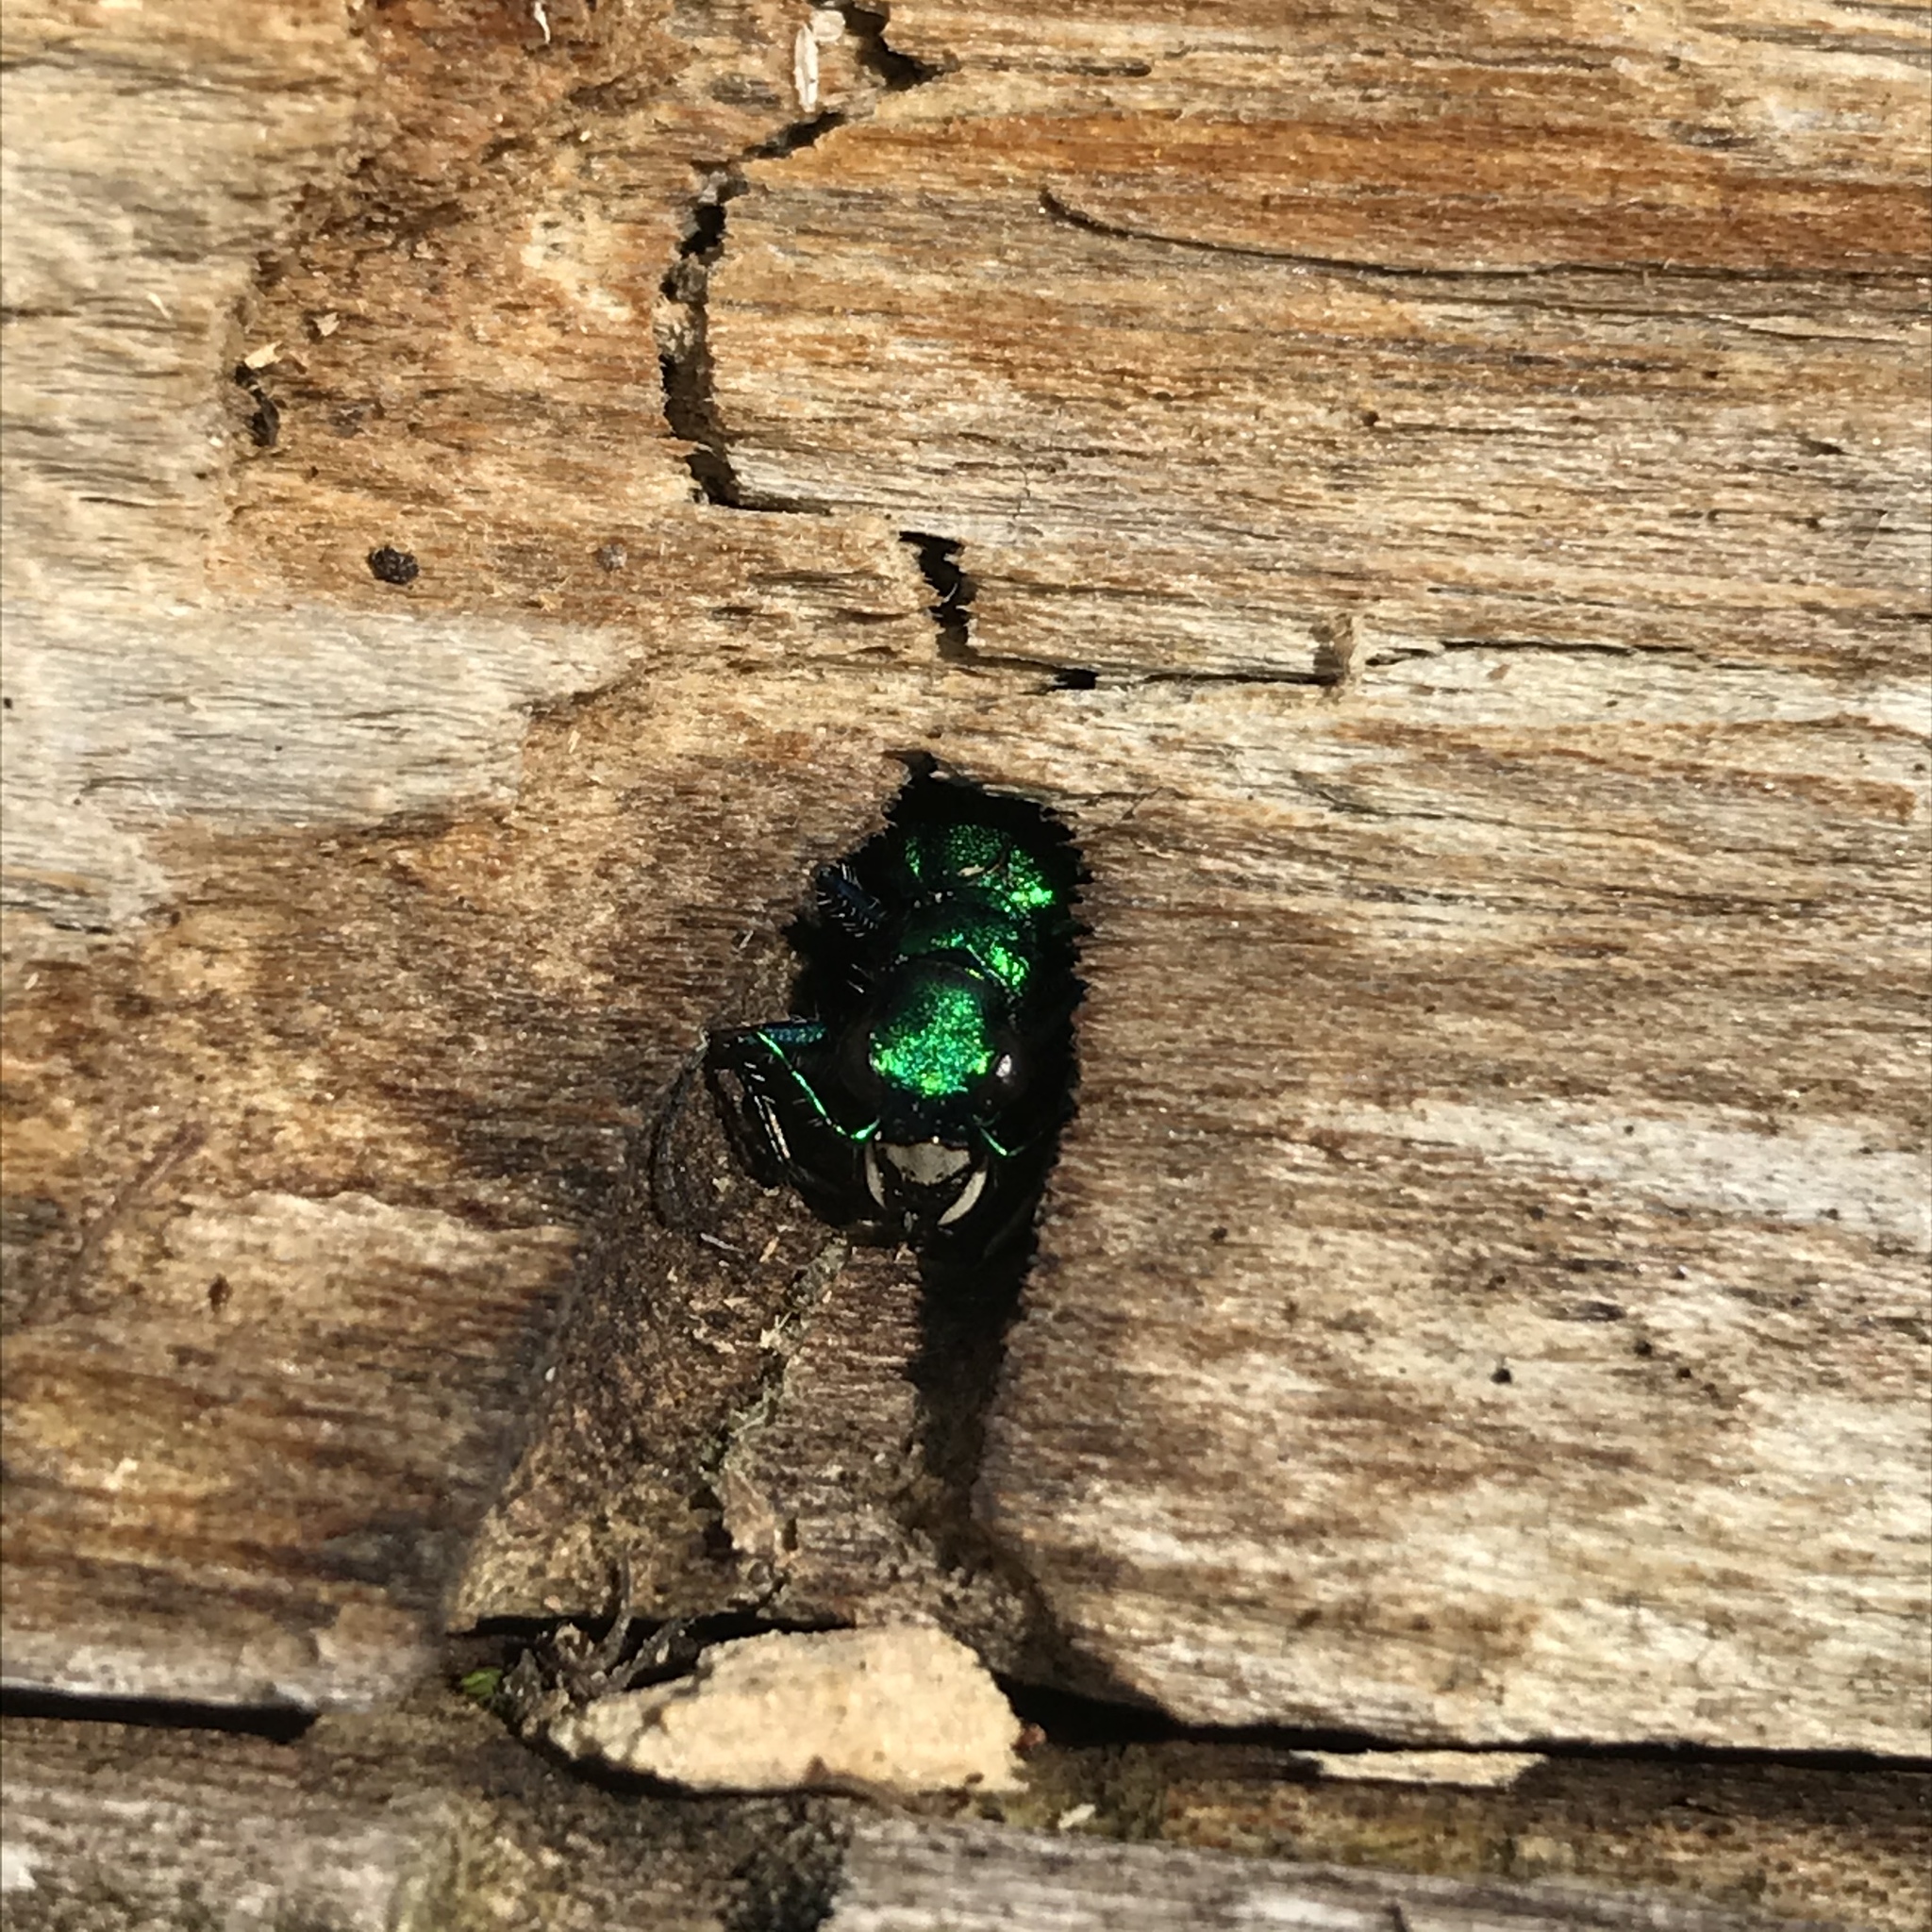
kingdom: Animalia
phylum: Arthropoda
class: Insecta
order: Coleoptera
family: Carabidae
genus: Cicindela
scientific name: Cicindela sexguttata
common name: Six-spotted tiger beetle
